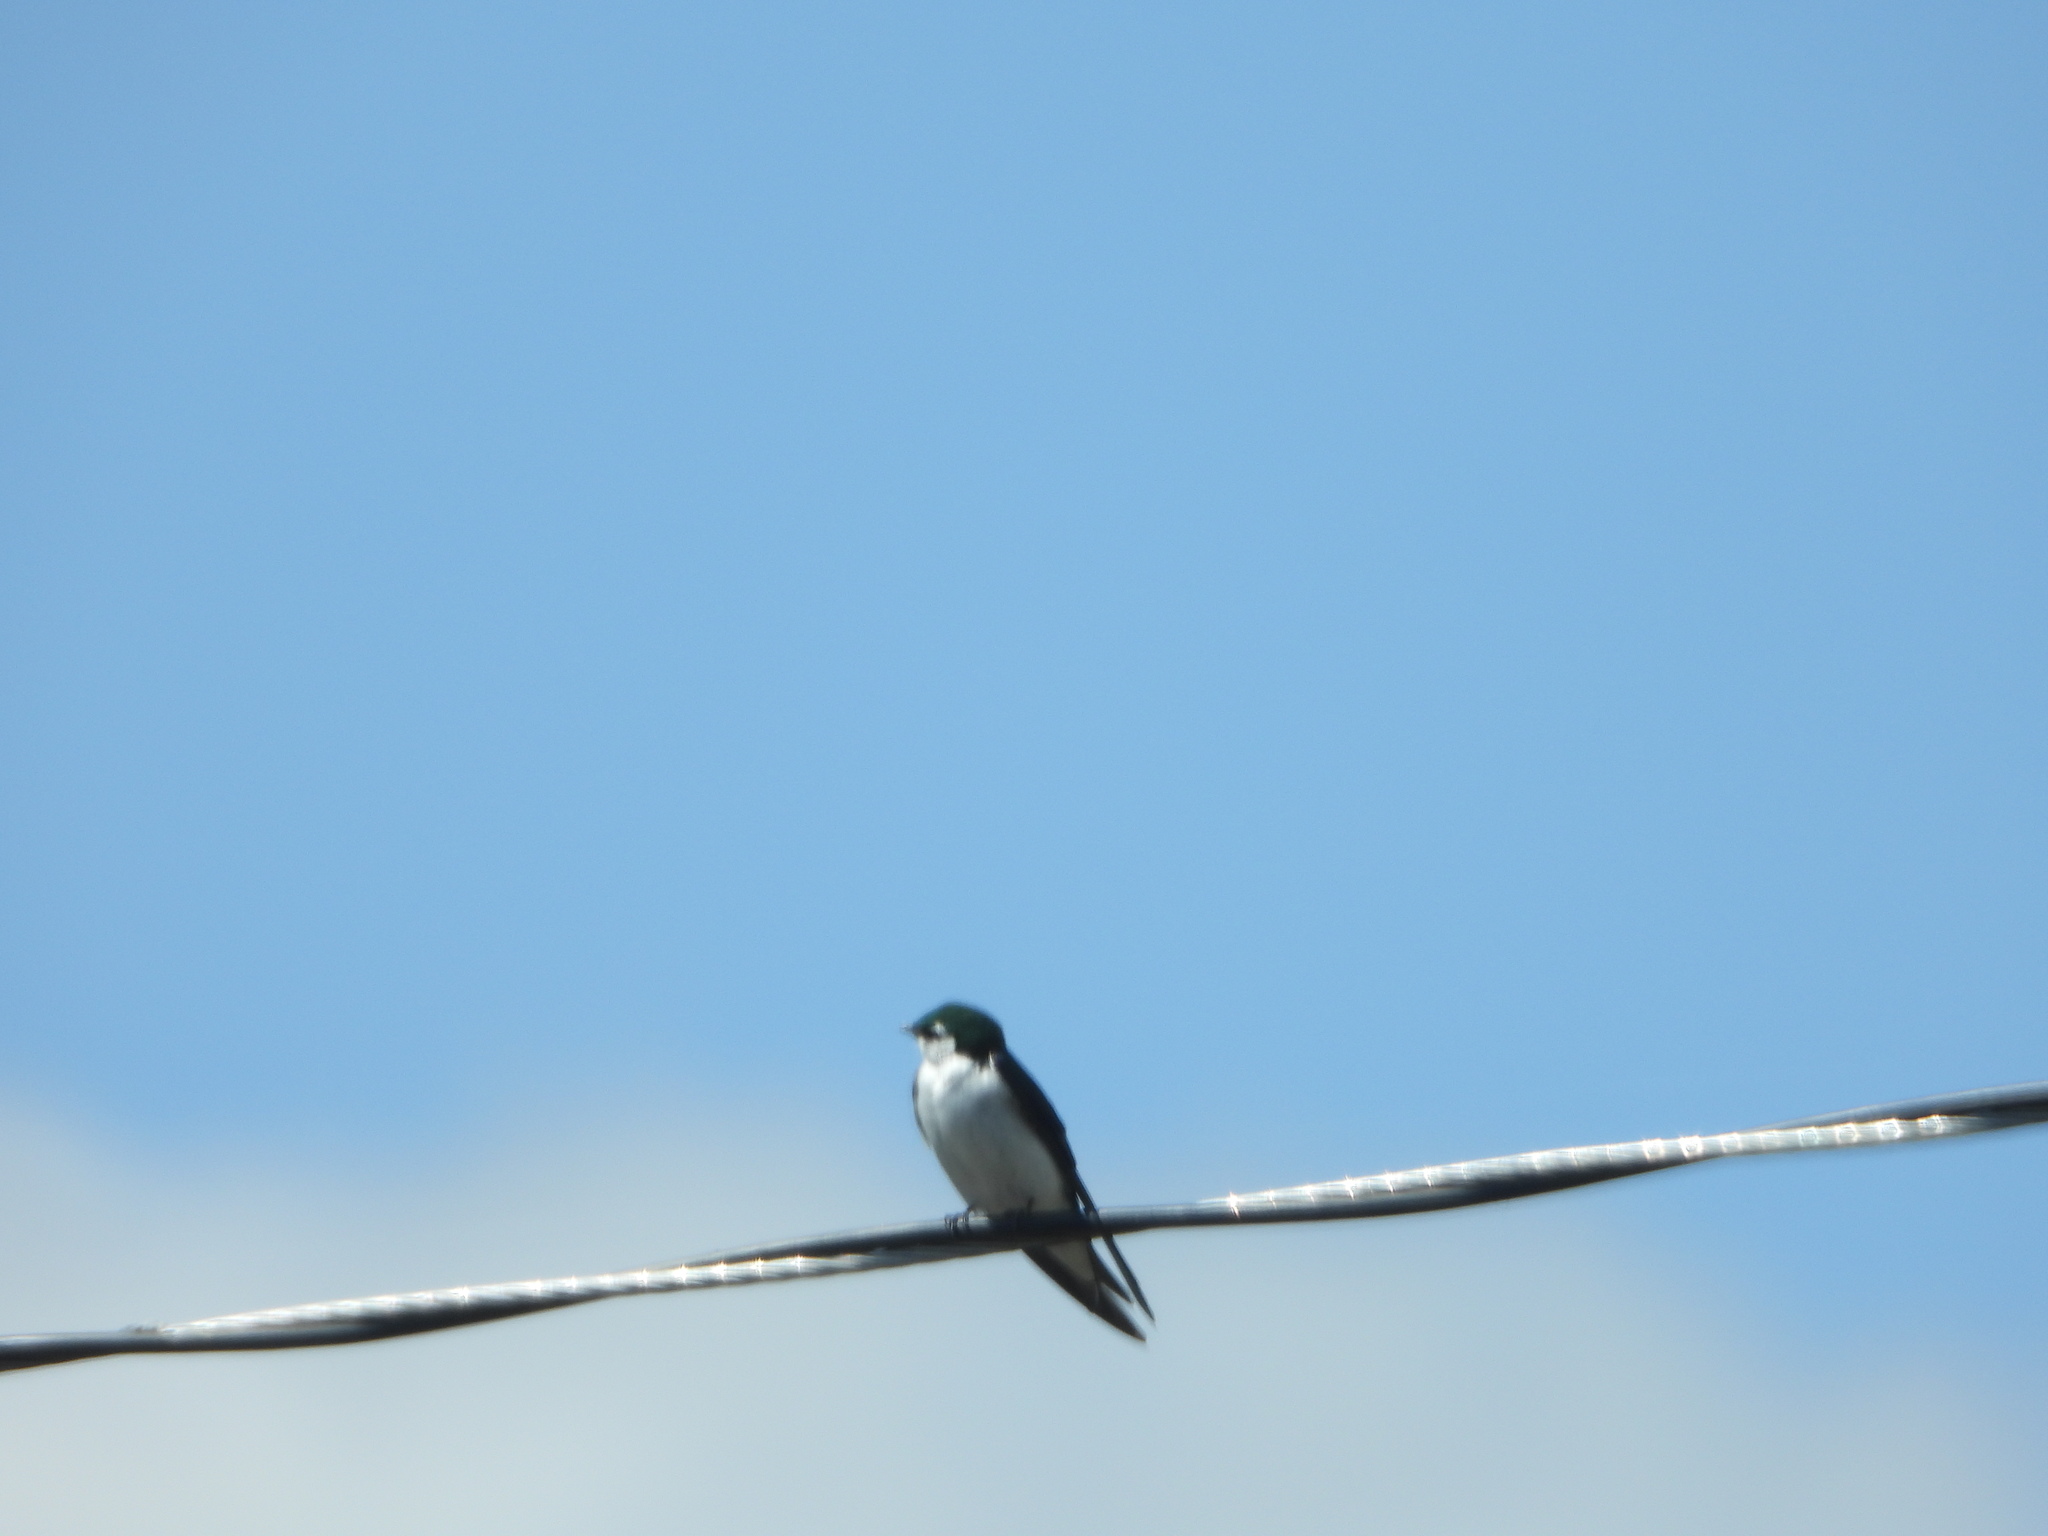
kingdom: Animalia
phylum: Chordata
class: Aves
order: Passeriformes
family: Hirundinidae
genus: Tachycineta
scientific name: Tachycineta thalassina
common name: Violet-green swallow
